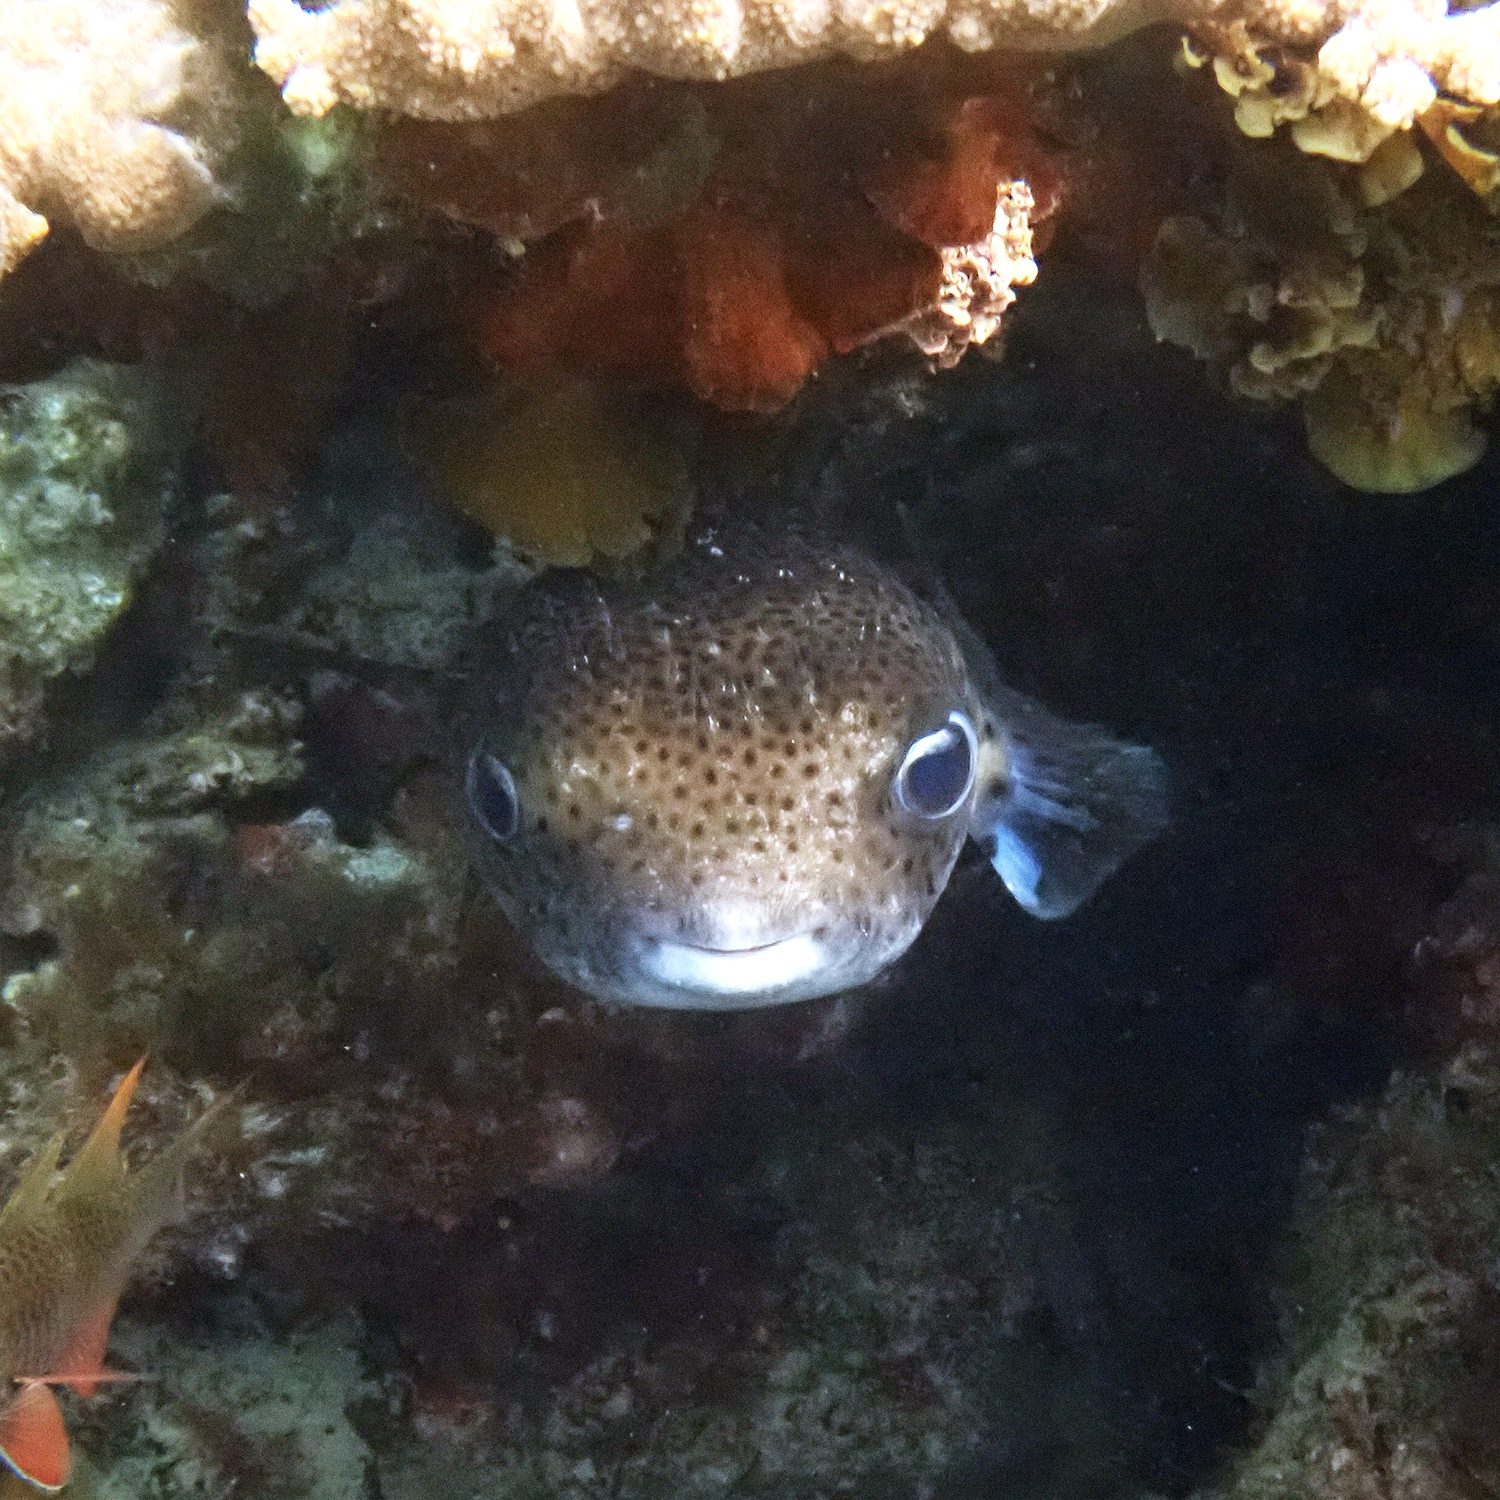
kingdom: Animalia
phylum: Chordata
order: Tetraodontiformes
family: Diodontidae
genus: Diodon
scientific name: Diodon hystrix
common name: Giant porcupinefish
